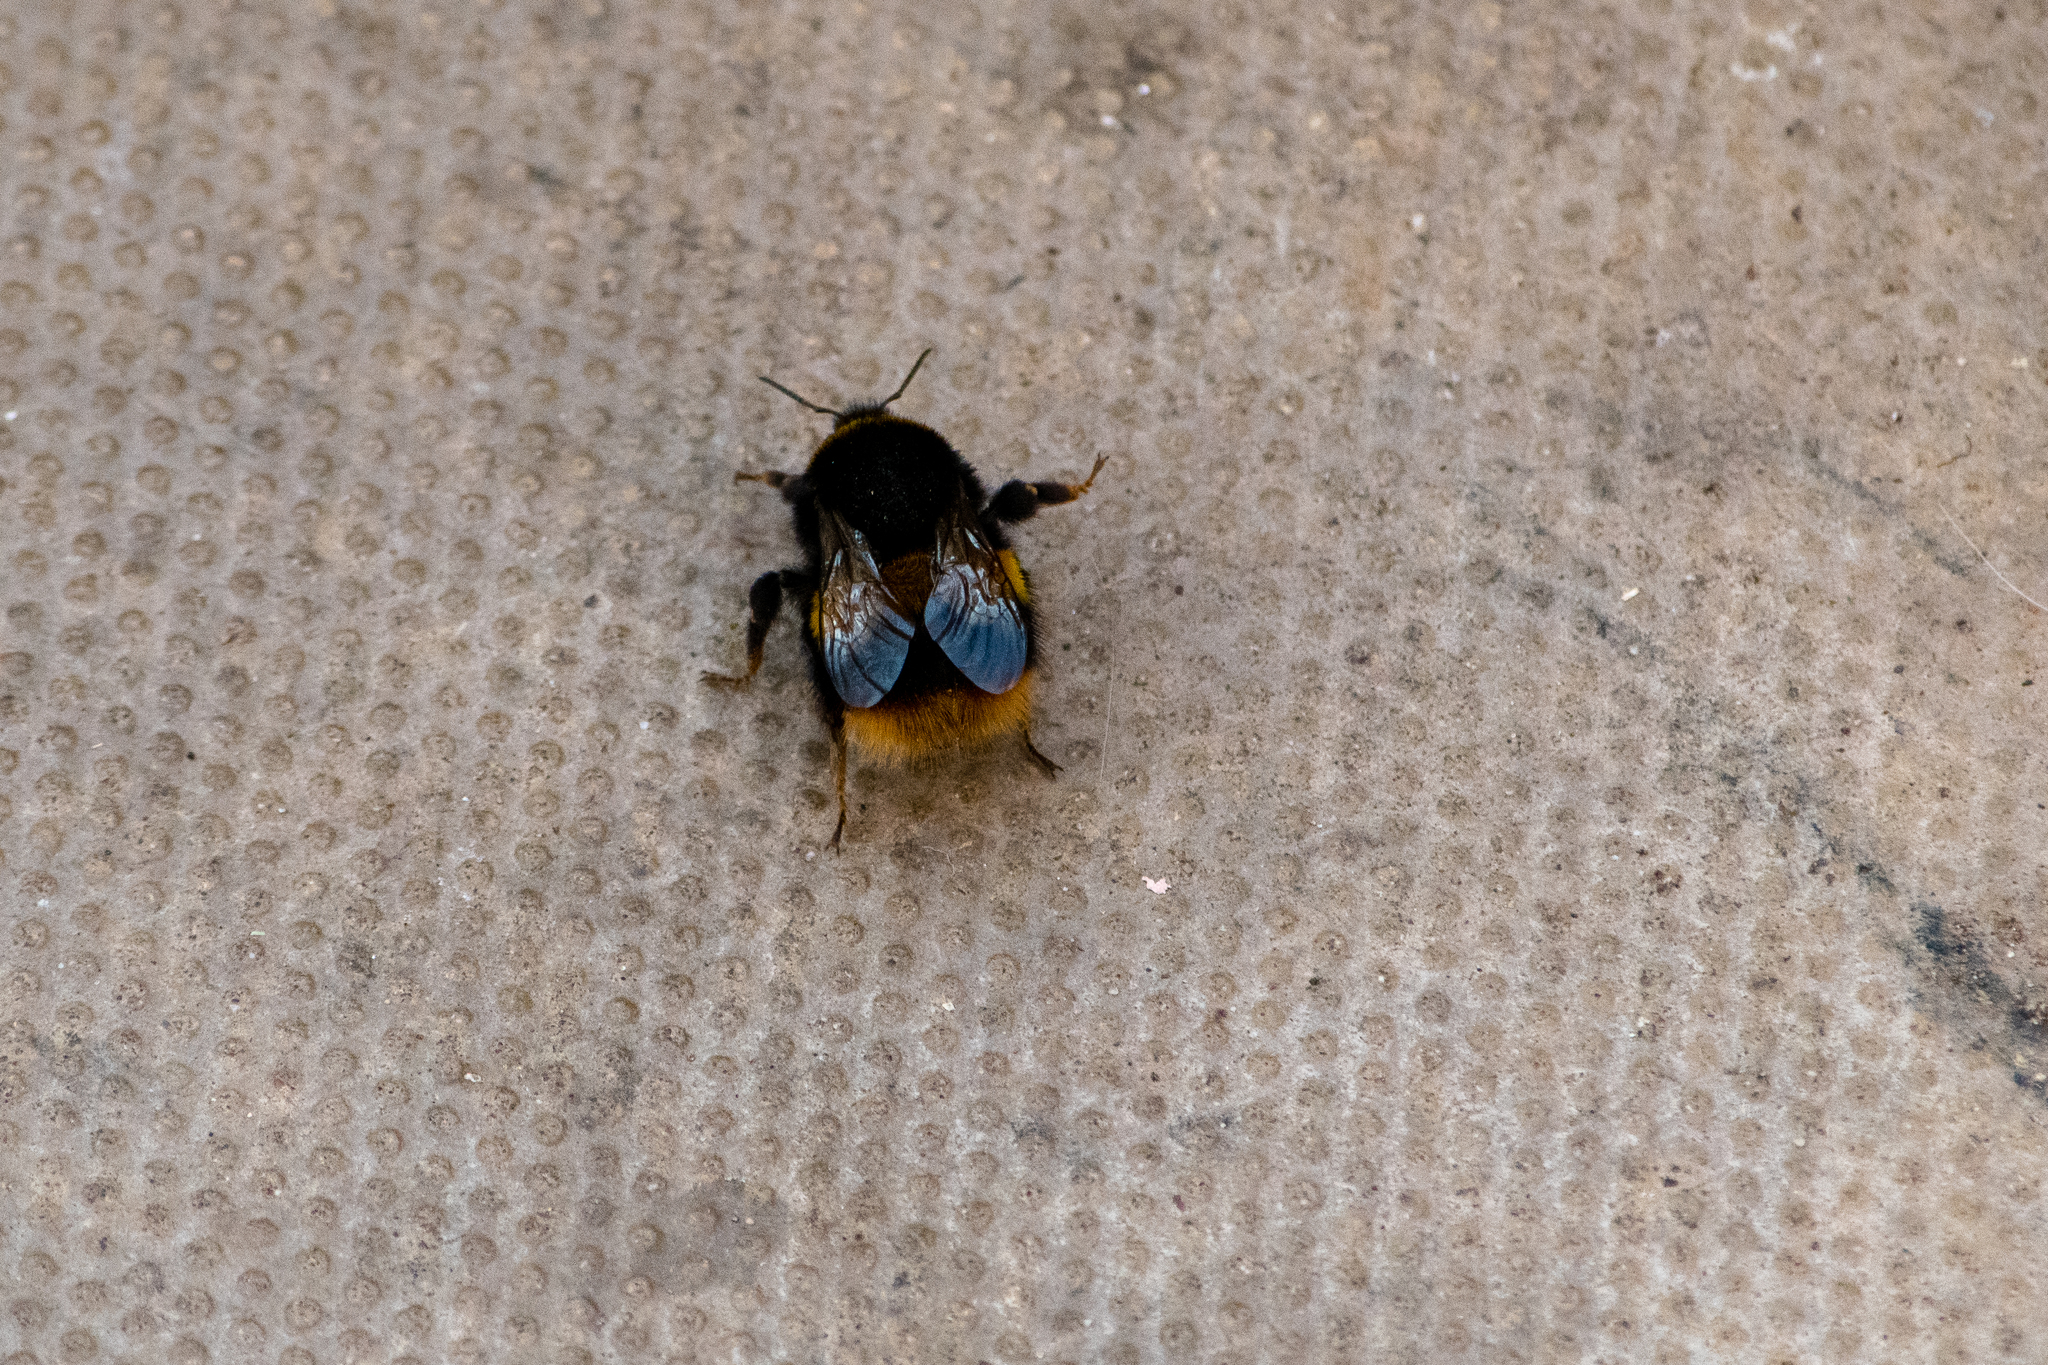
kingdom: Animalia
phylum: Arthropoda
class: Insecta
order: Hymenoptera
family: Apidae
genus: Bombus
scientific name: Bombus terrestris
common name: Buff-tailed bumblebee
